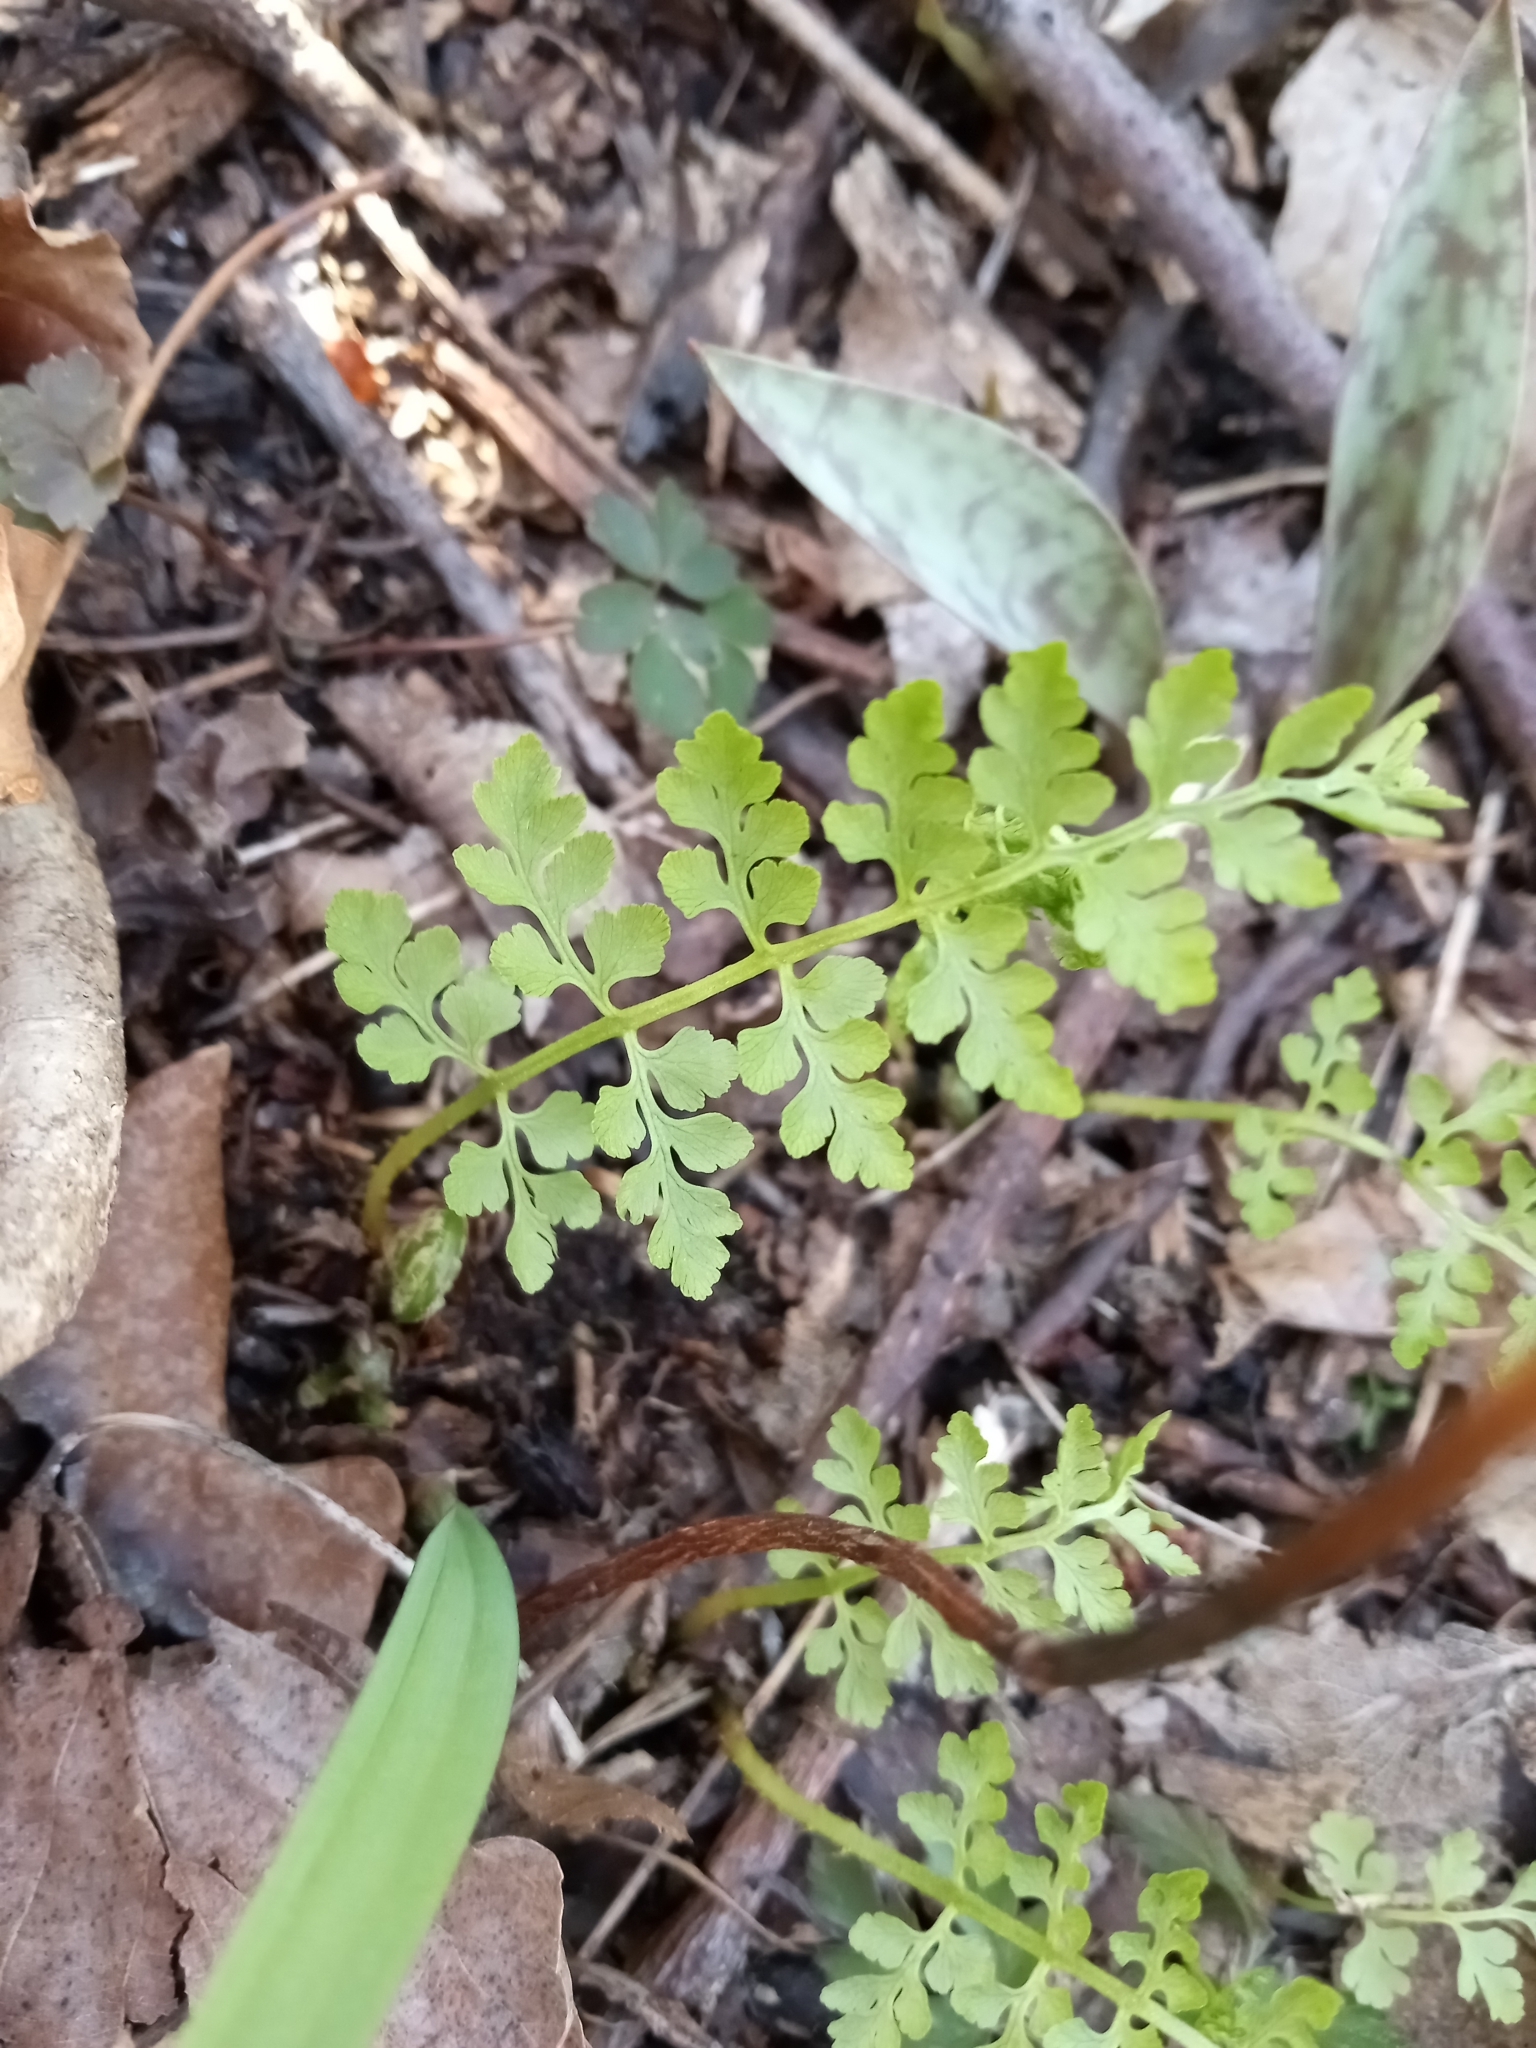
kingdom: Plantae
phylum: Tracheophyta
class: Polypodiopsida
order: Polypodiales
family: Cystopteridaceae
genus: Cystopteris
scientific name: Cystopteris protrusa
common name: Lowland brittle fern
